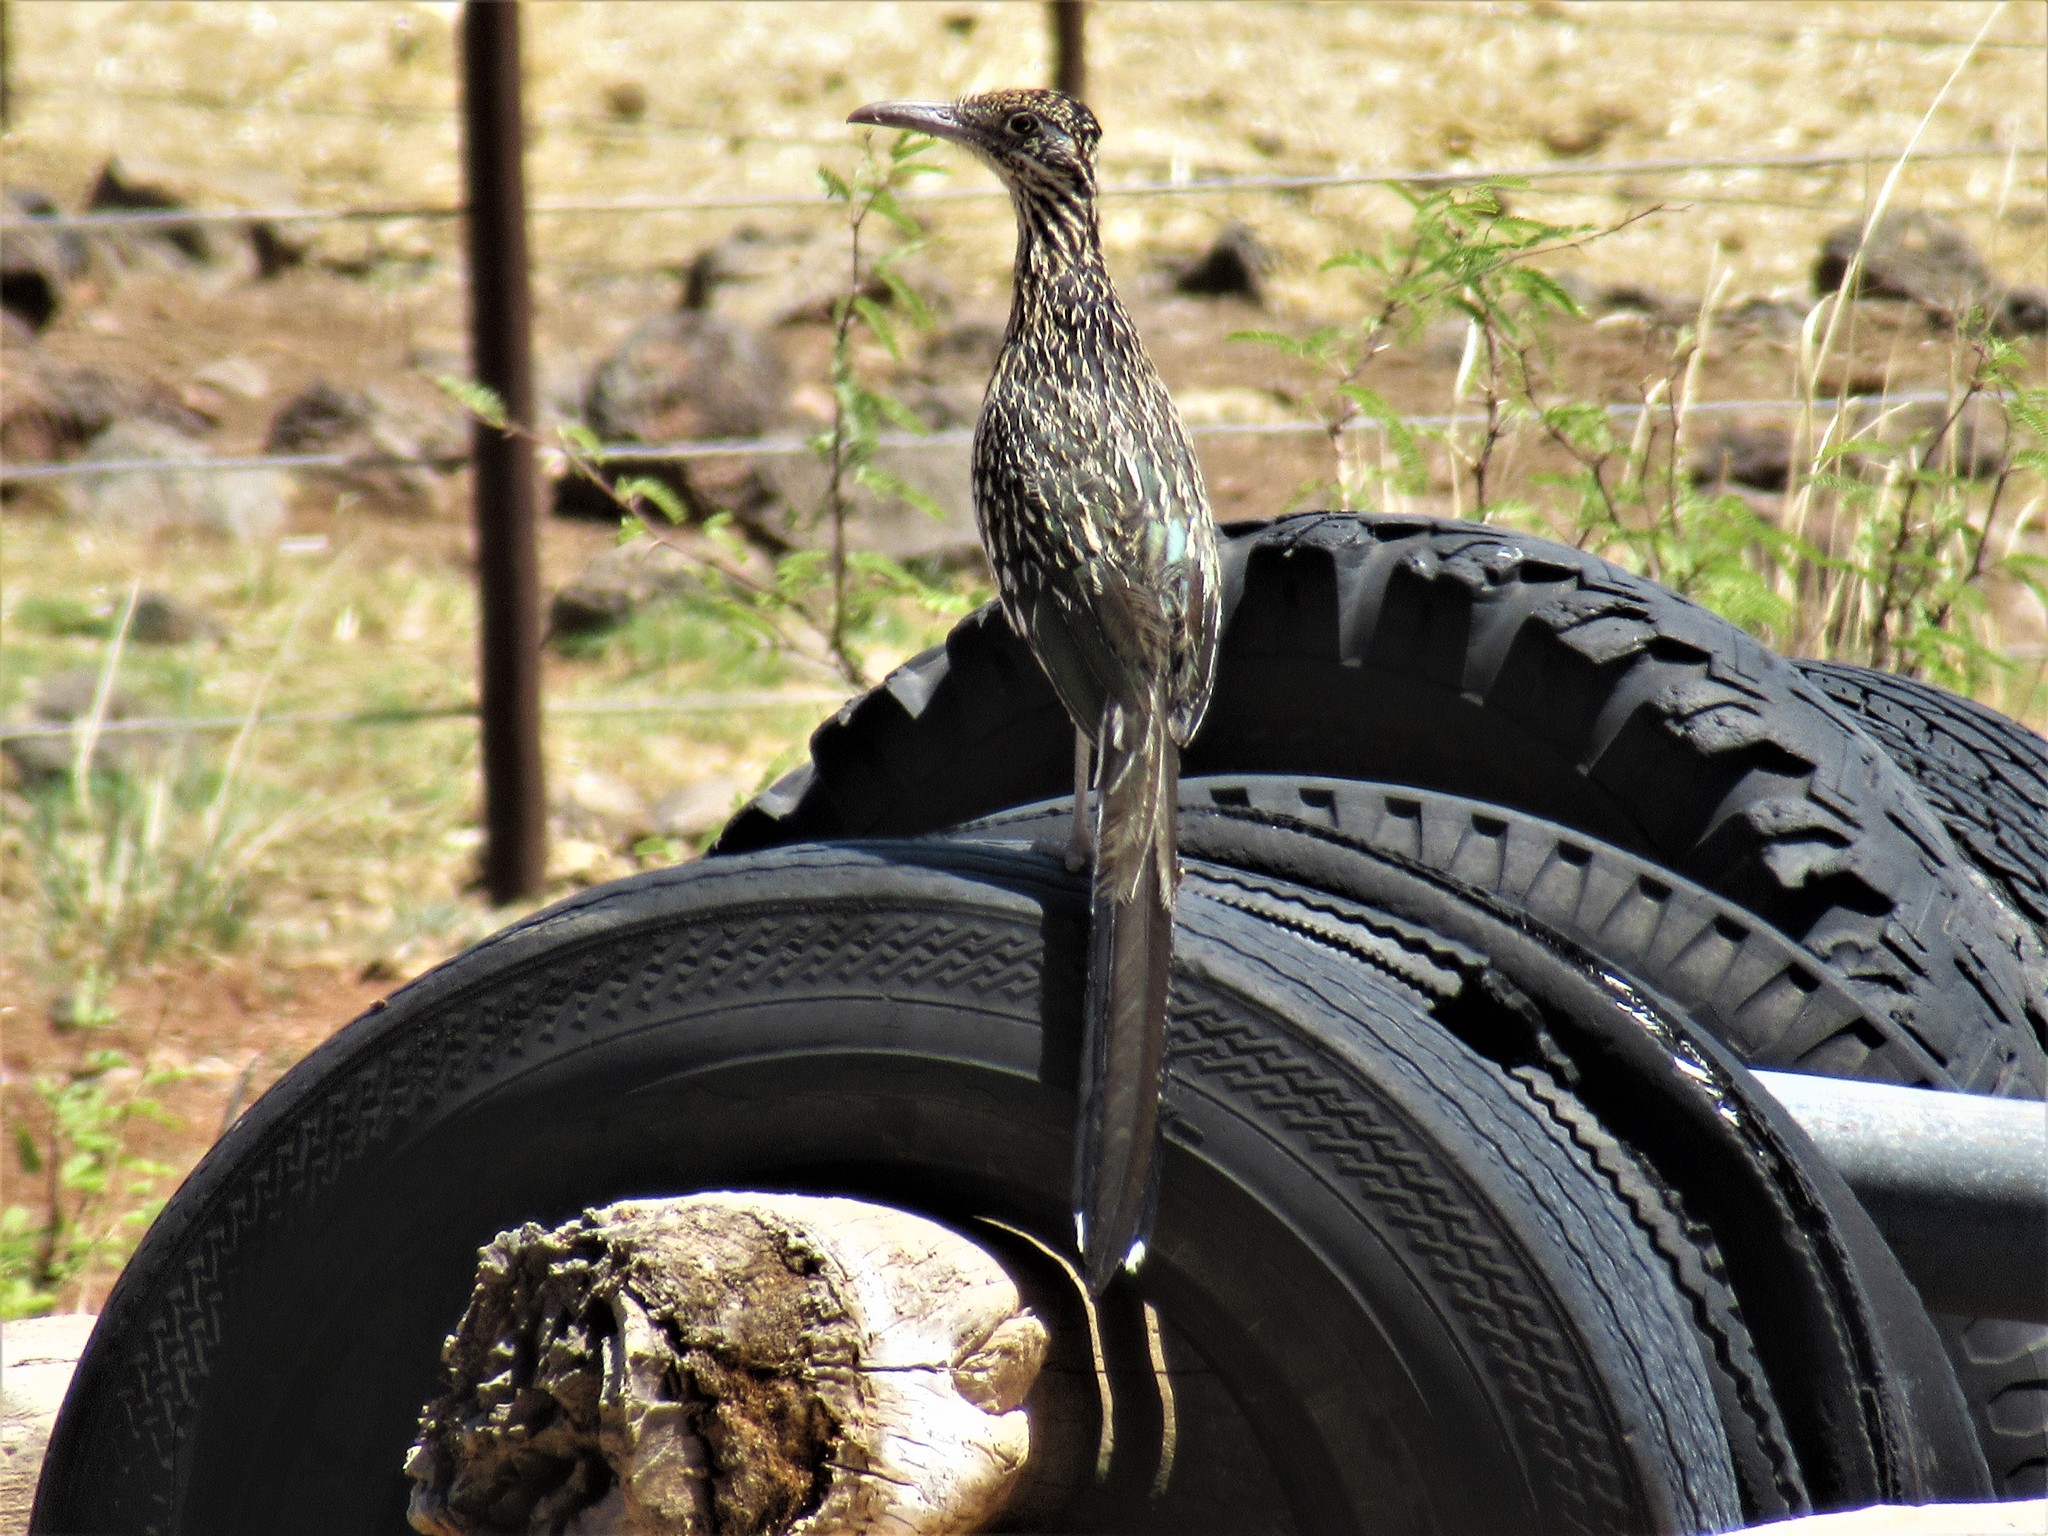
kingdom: Animalia
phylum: Chordata
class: Aves
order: Cuculiformes
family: Cuculidae
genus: Geococcyx
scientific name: Geococcyx californianus
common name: Greater roadrunner
